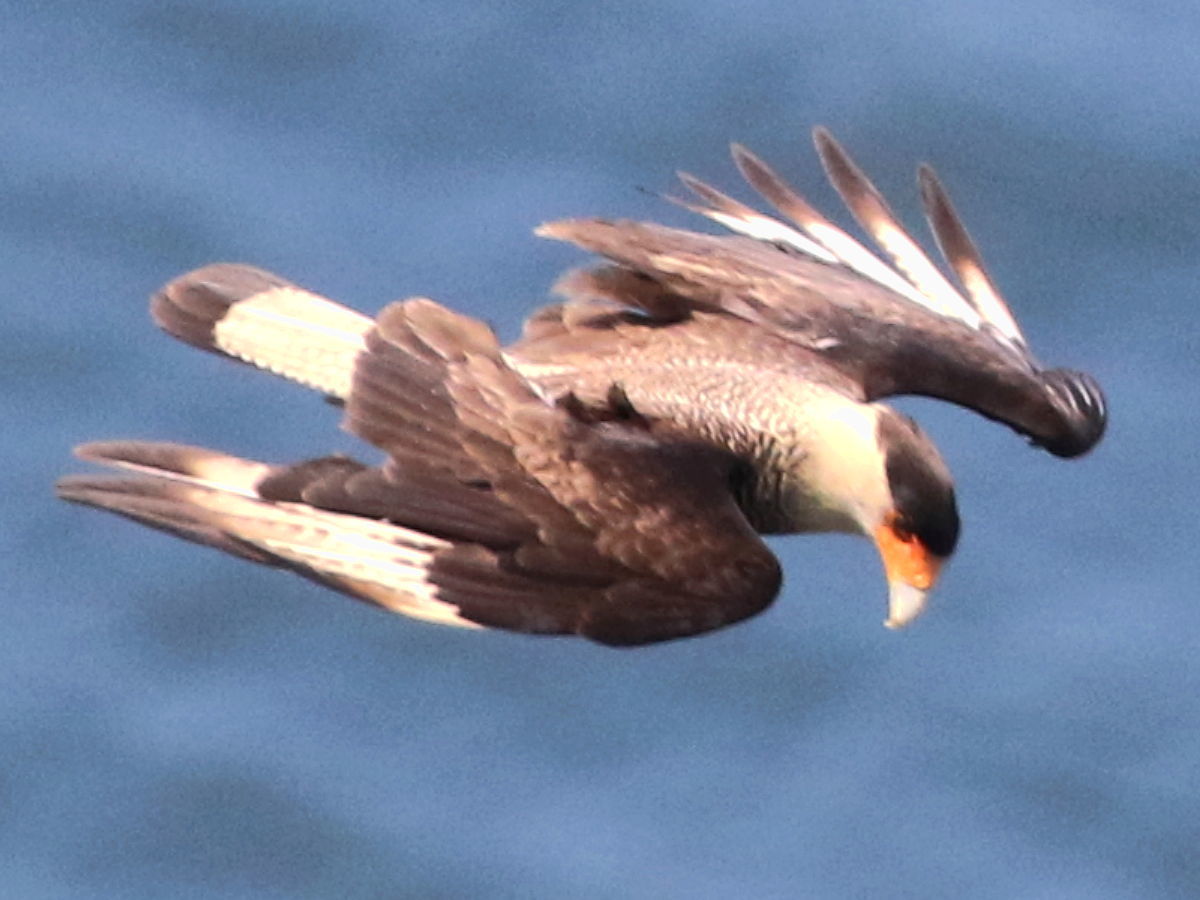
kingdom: Animalia
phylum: Chordata
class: Aves
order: Falconiformes
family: Falconidae
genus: Caracara
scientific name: Caracara plancus
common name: Southern caracara
